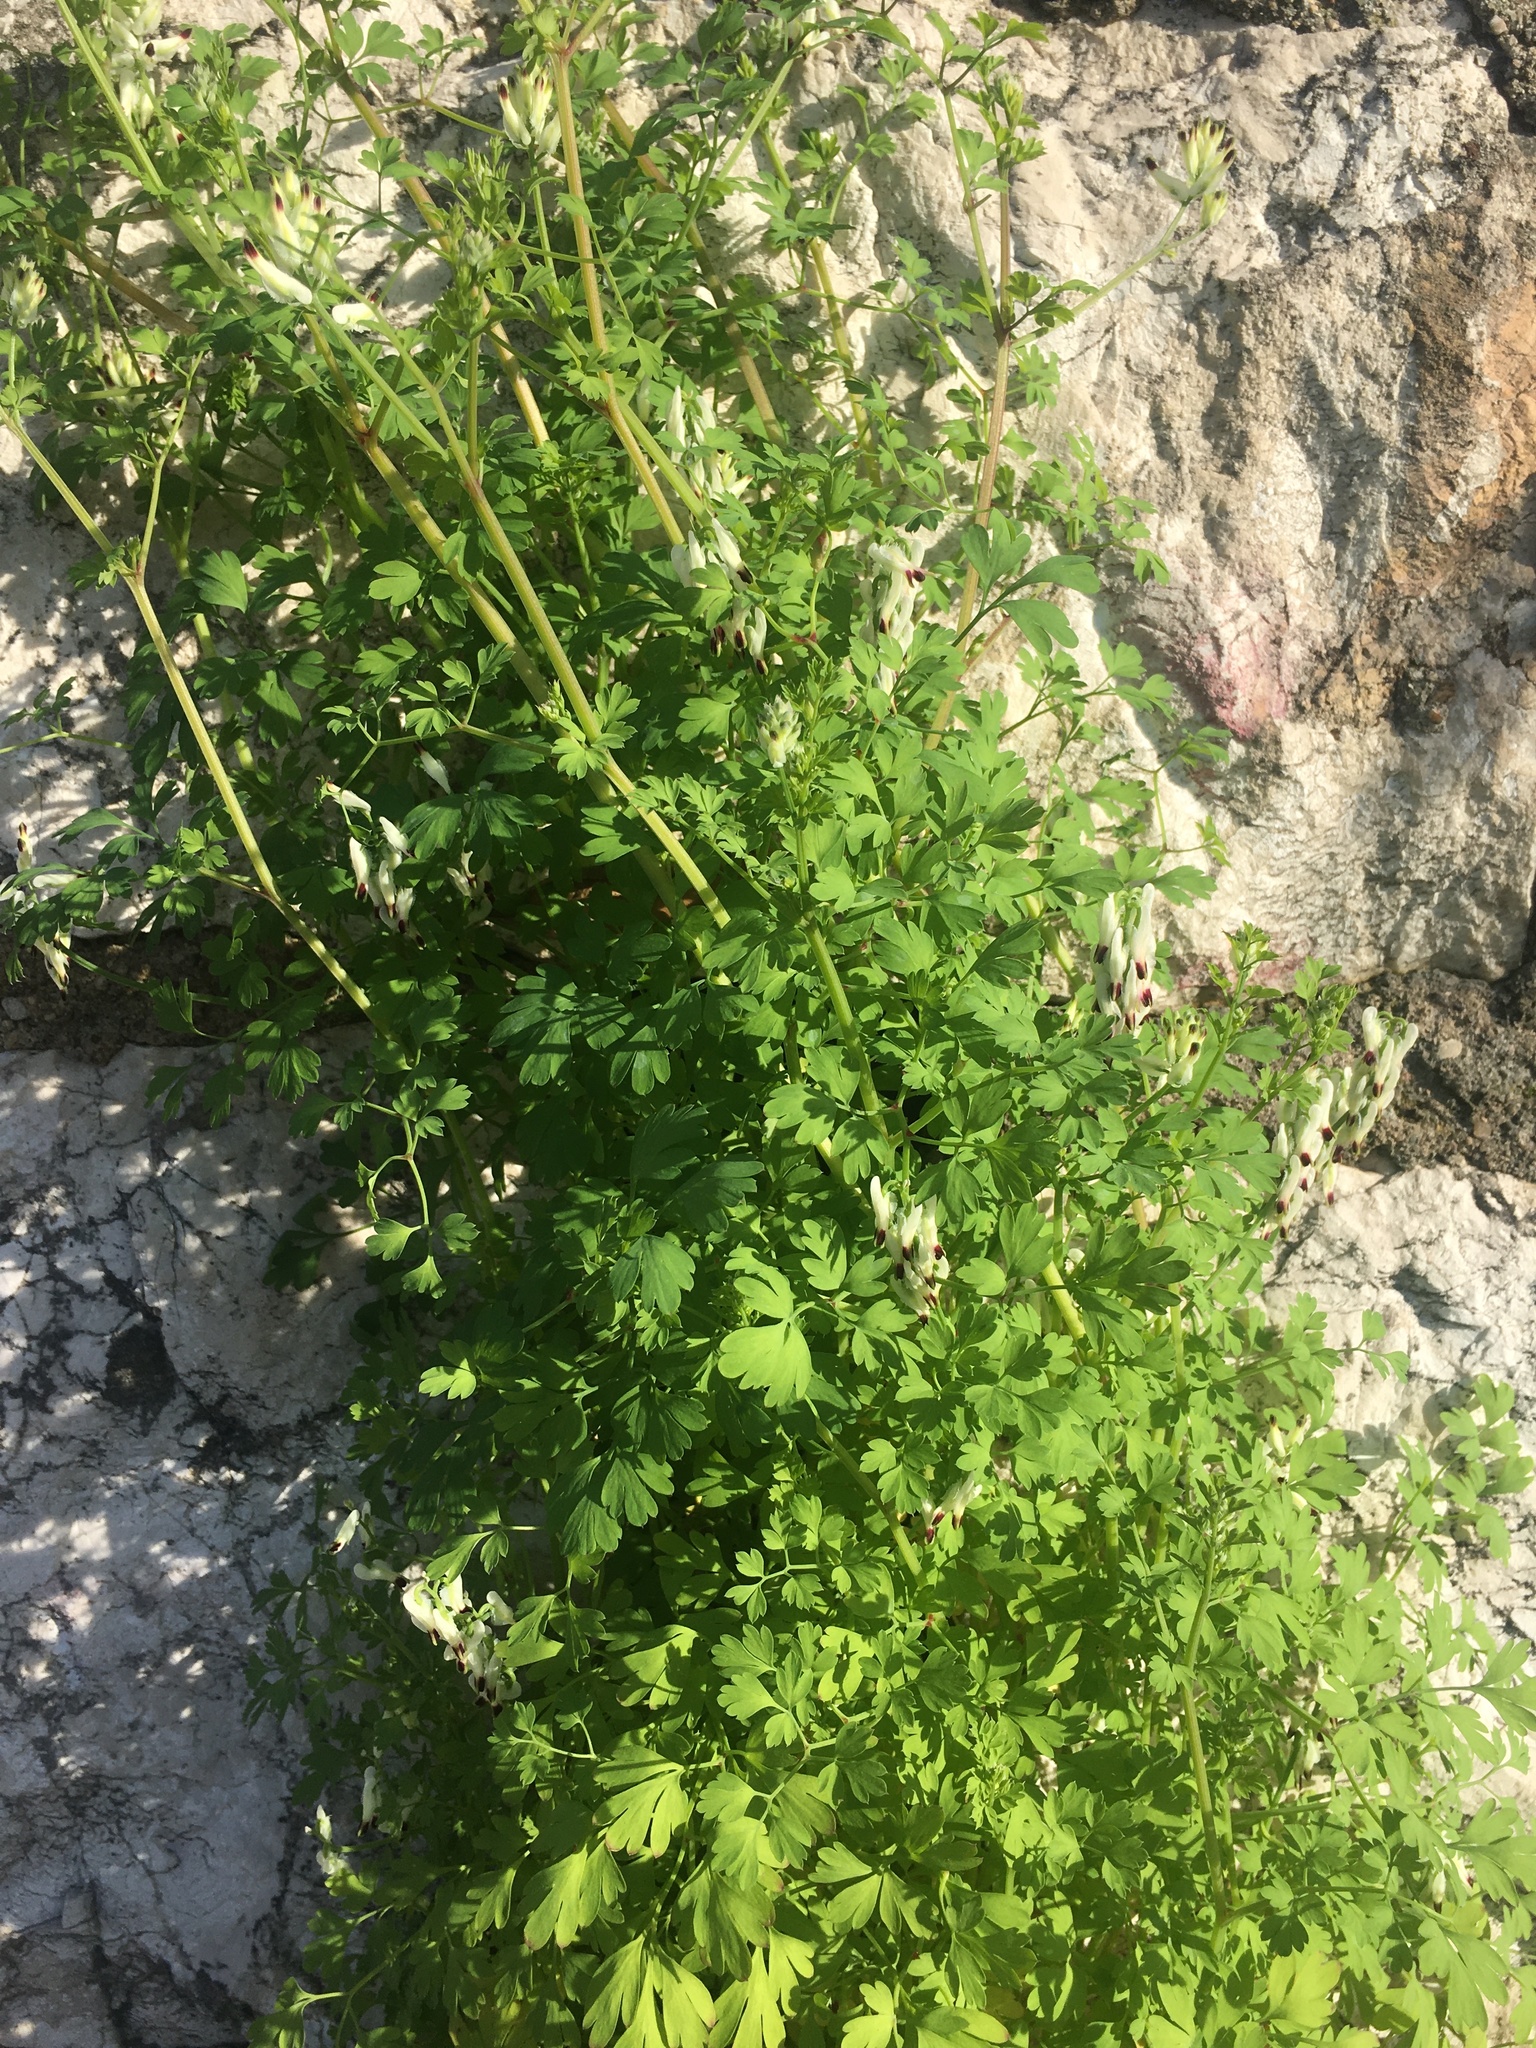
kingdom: Plantae
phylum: Tracheophyta
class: Magnoliopsida
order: Ranunculales
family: Papaveraceae
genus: Fumaria
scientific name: Fumaria capreolata
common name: White ramping-fumitory
